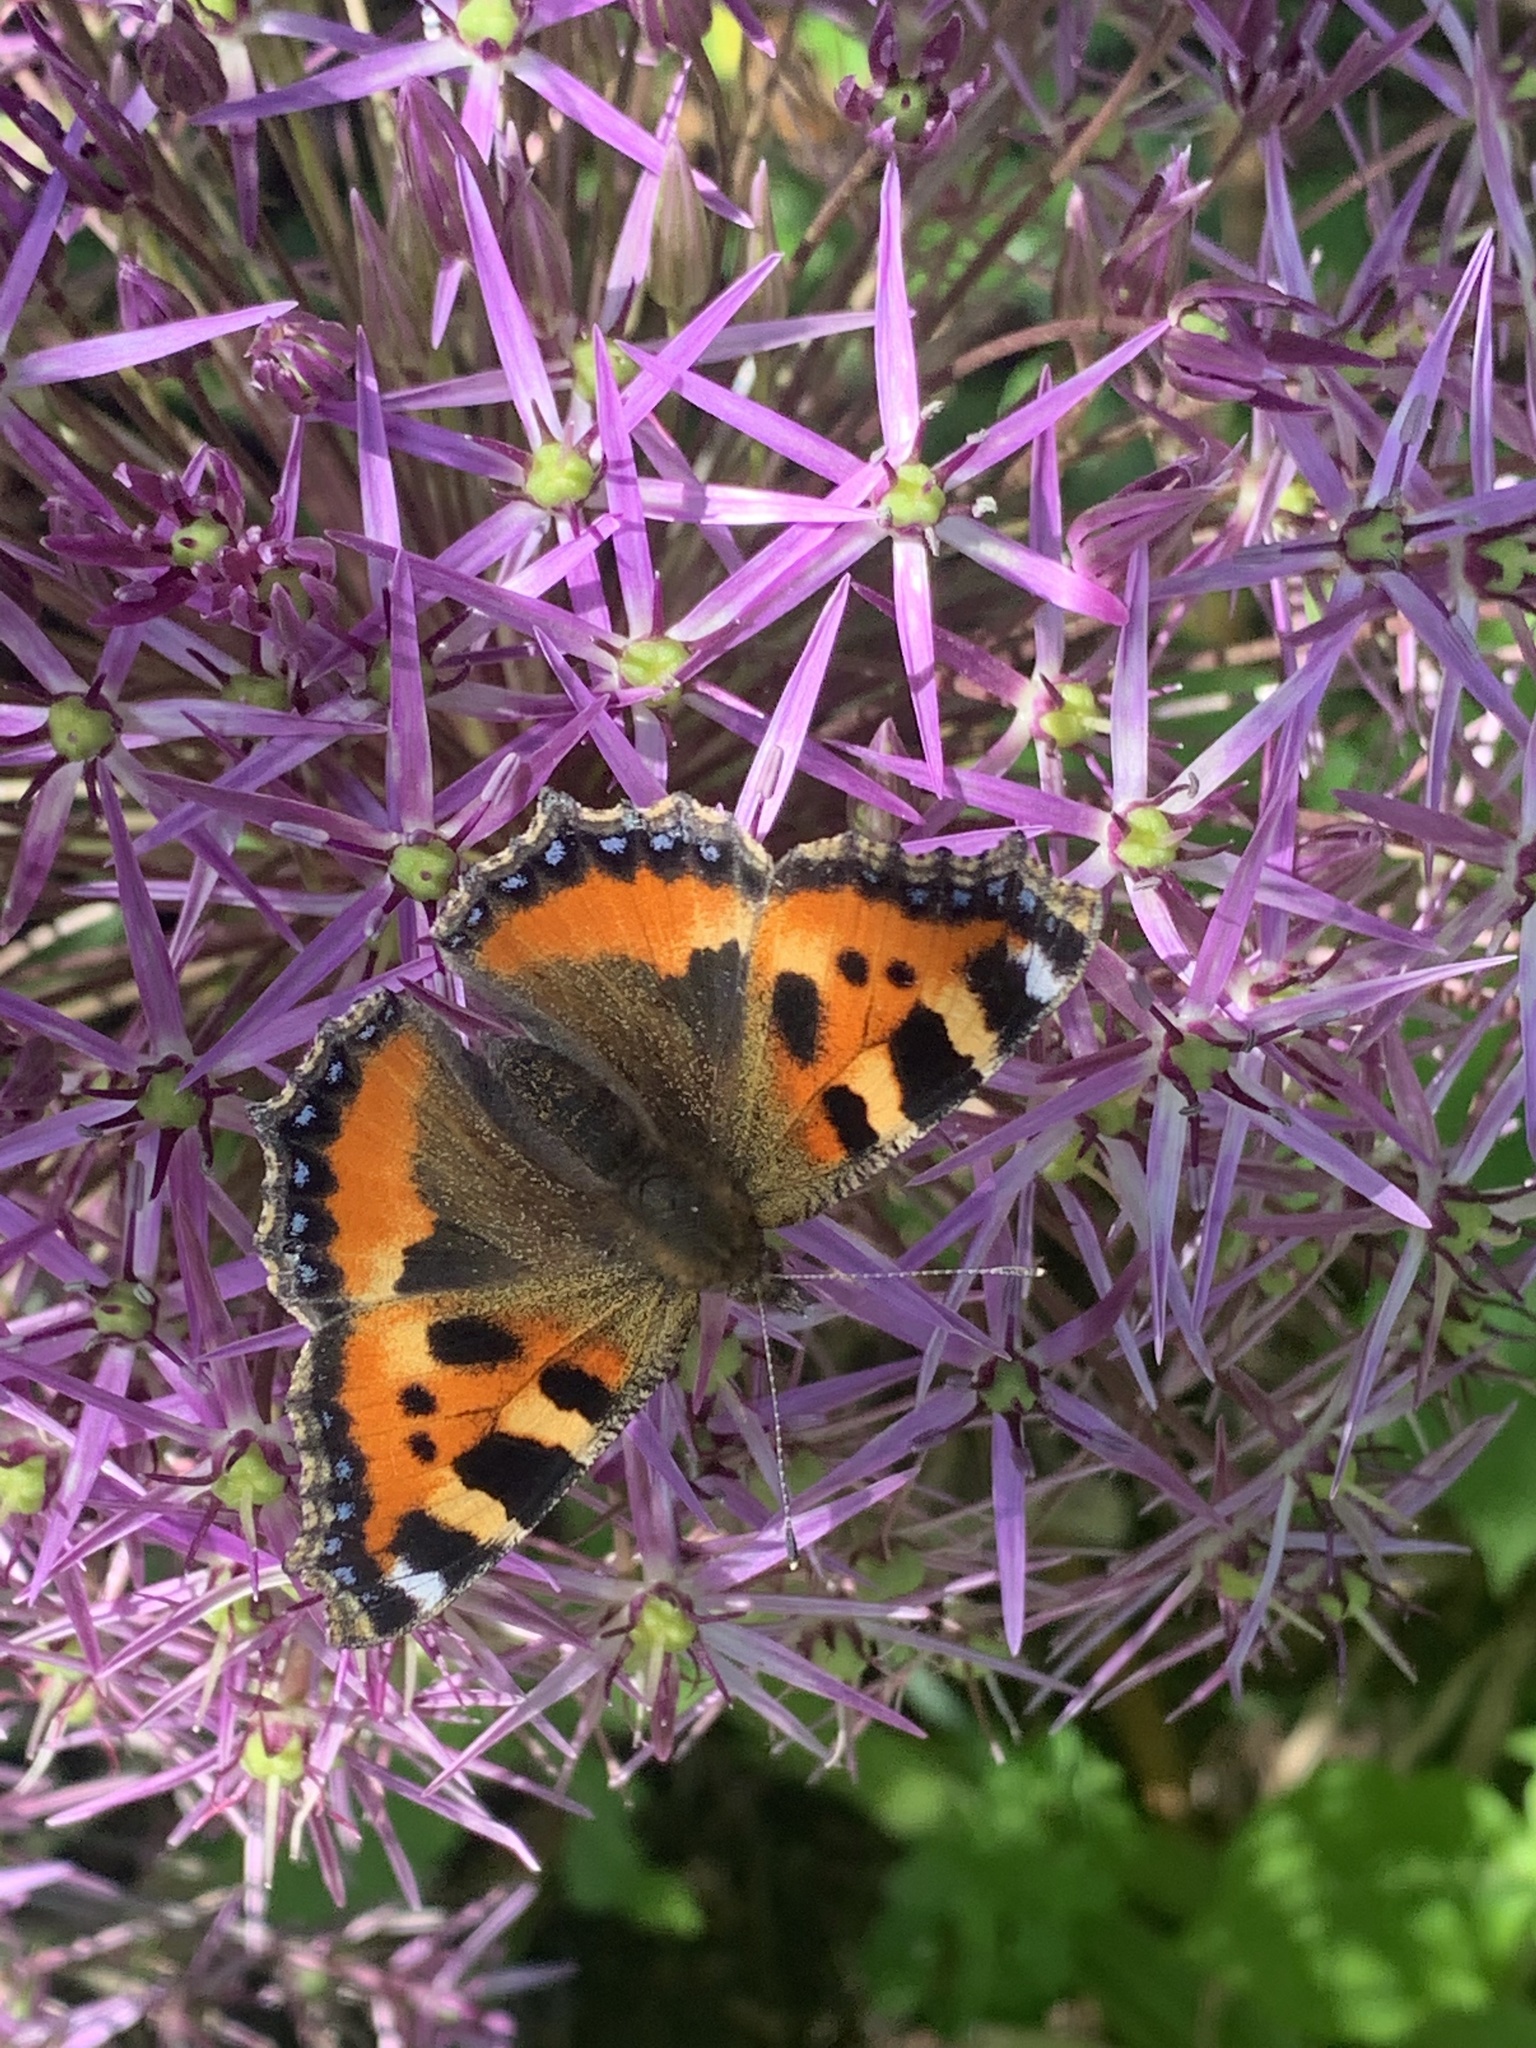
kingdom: Animalia
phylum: Arthropoda
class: Insecta
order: Lepidoptera
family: Nymphalidae
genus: Aglais
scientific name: Aglais urticae
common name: Small tortoiseshell
